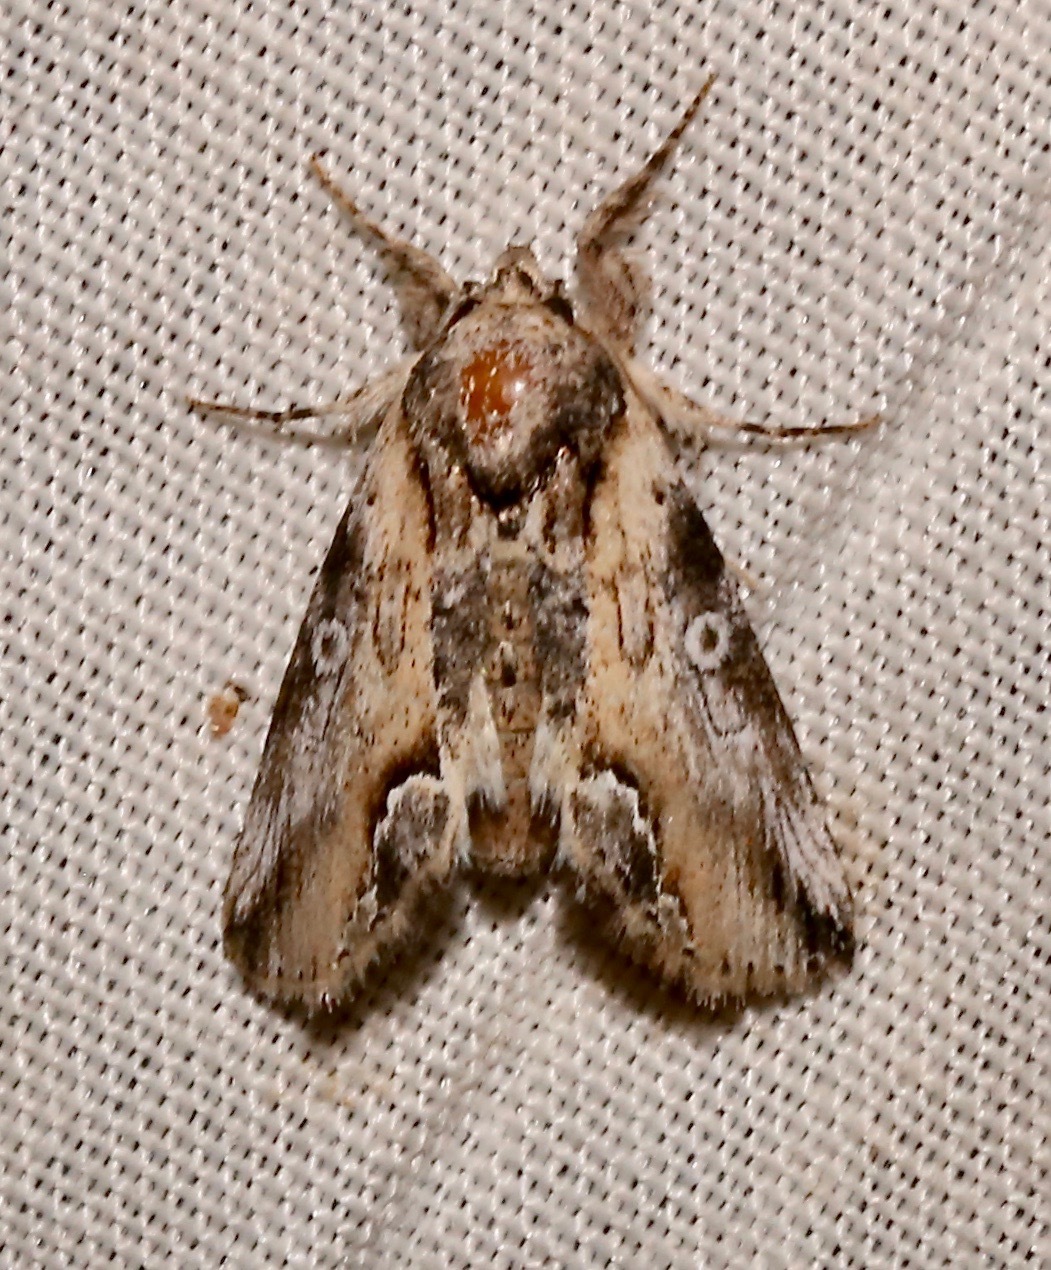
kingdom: Animalia
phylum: Arthropoda
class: Insecta
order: Lepidoptera
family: Noctuidae
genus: Prothrinax
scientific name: Prothrinax luteomedia
